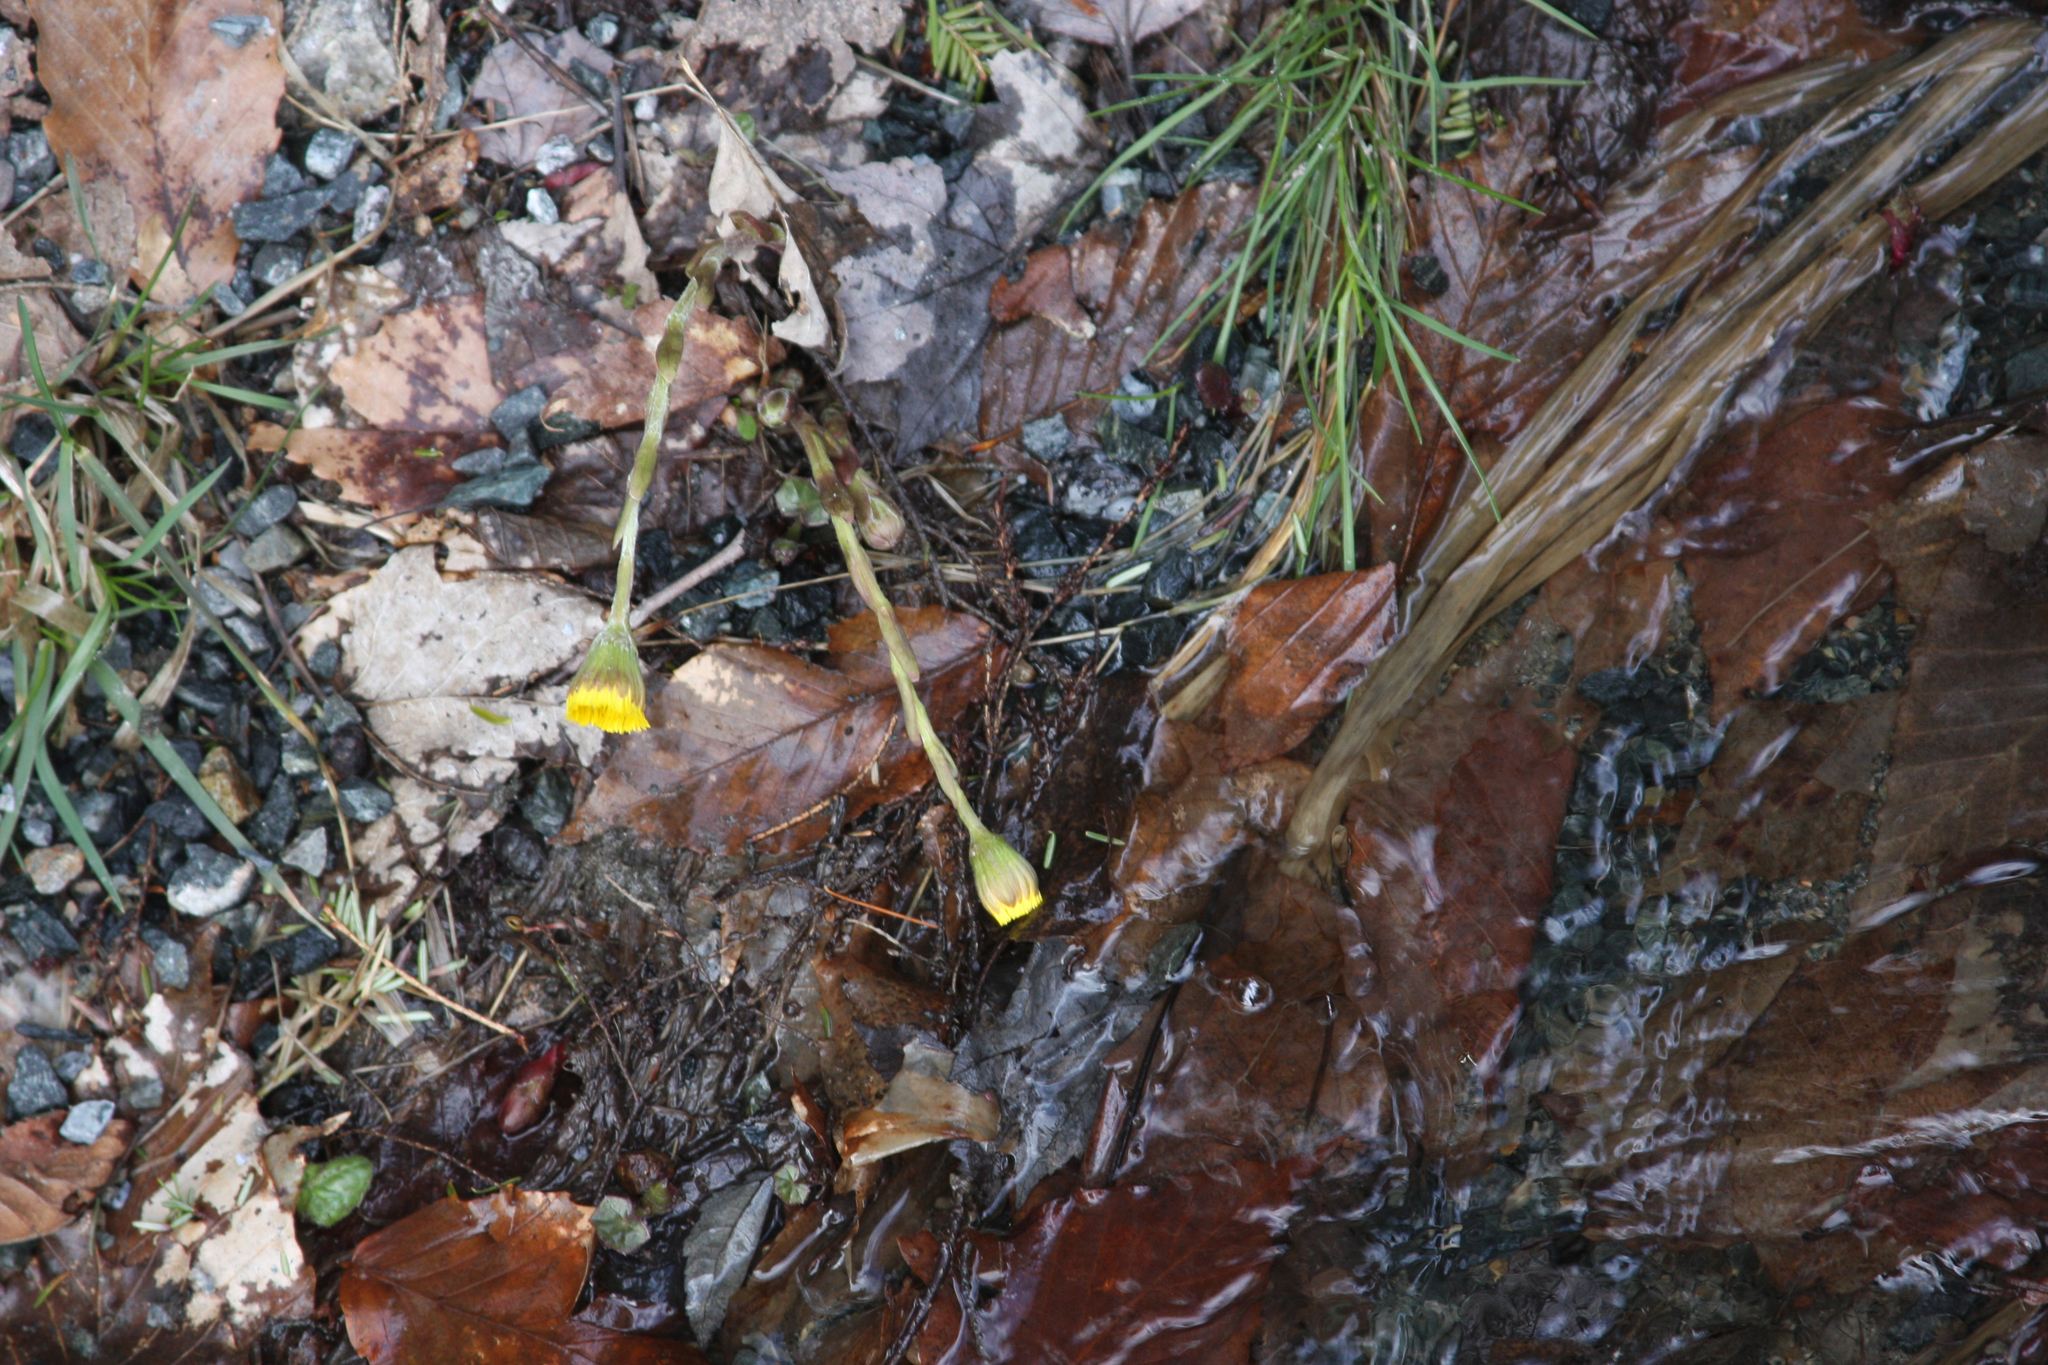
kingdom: Plantae
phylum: Tracheophyta
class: Magnoliopsida
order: Asterales
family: Asteraceae
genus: Tussilago
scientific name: Tussilago farfara
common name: Coltsfoot
